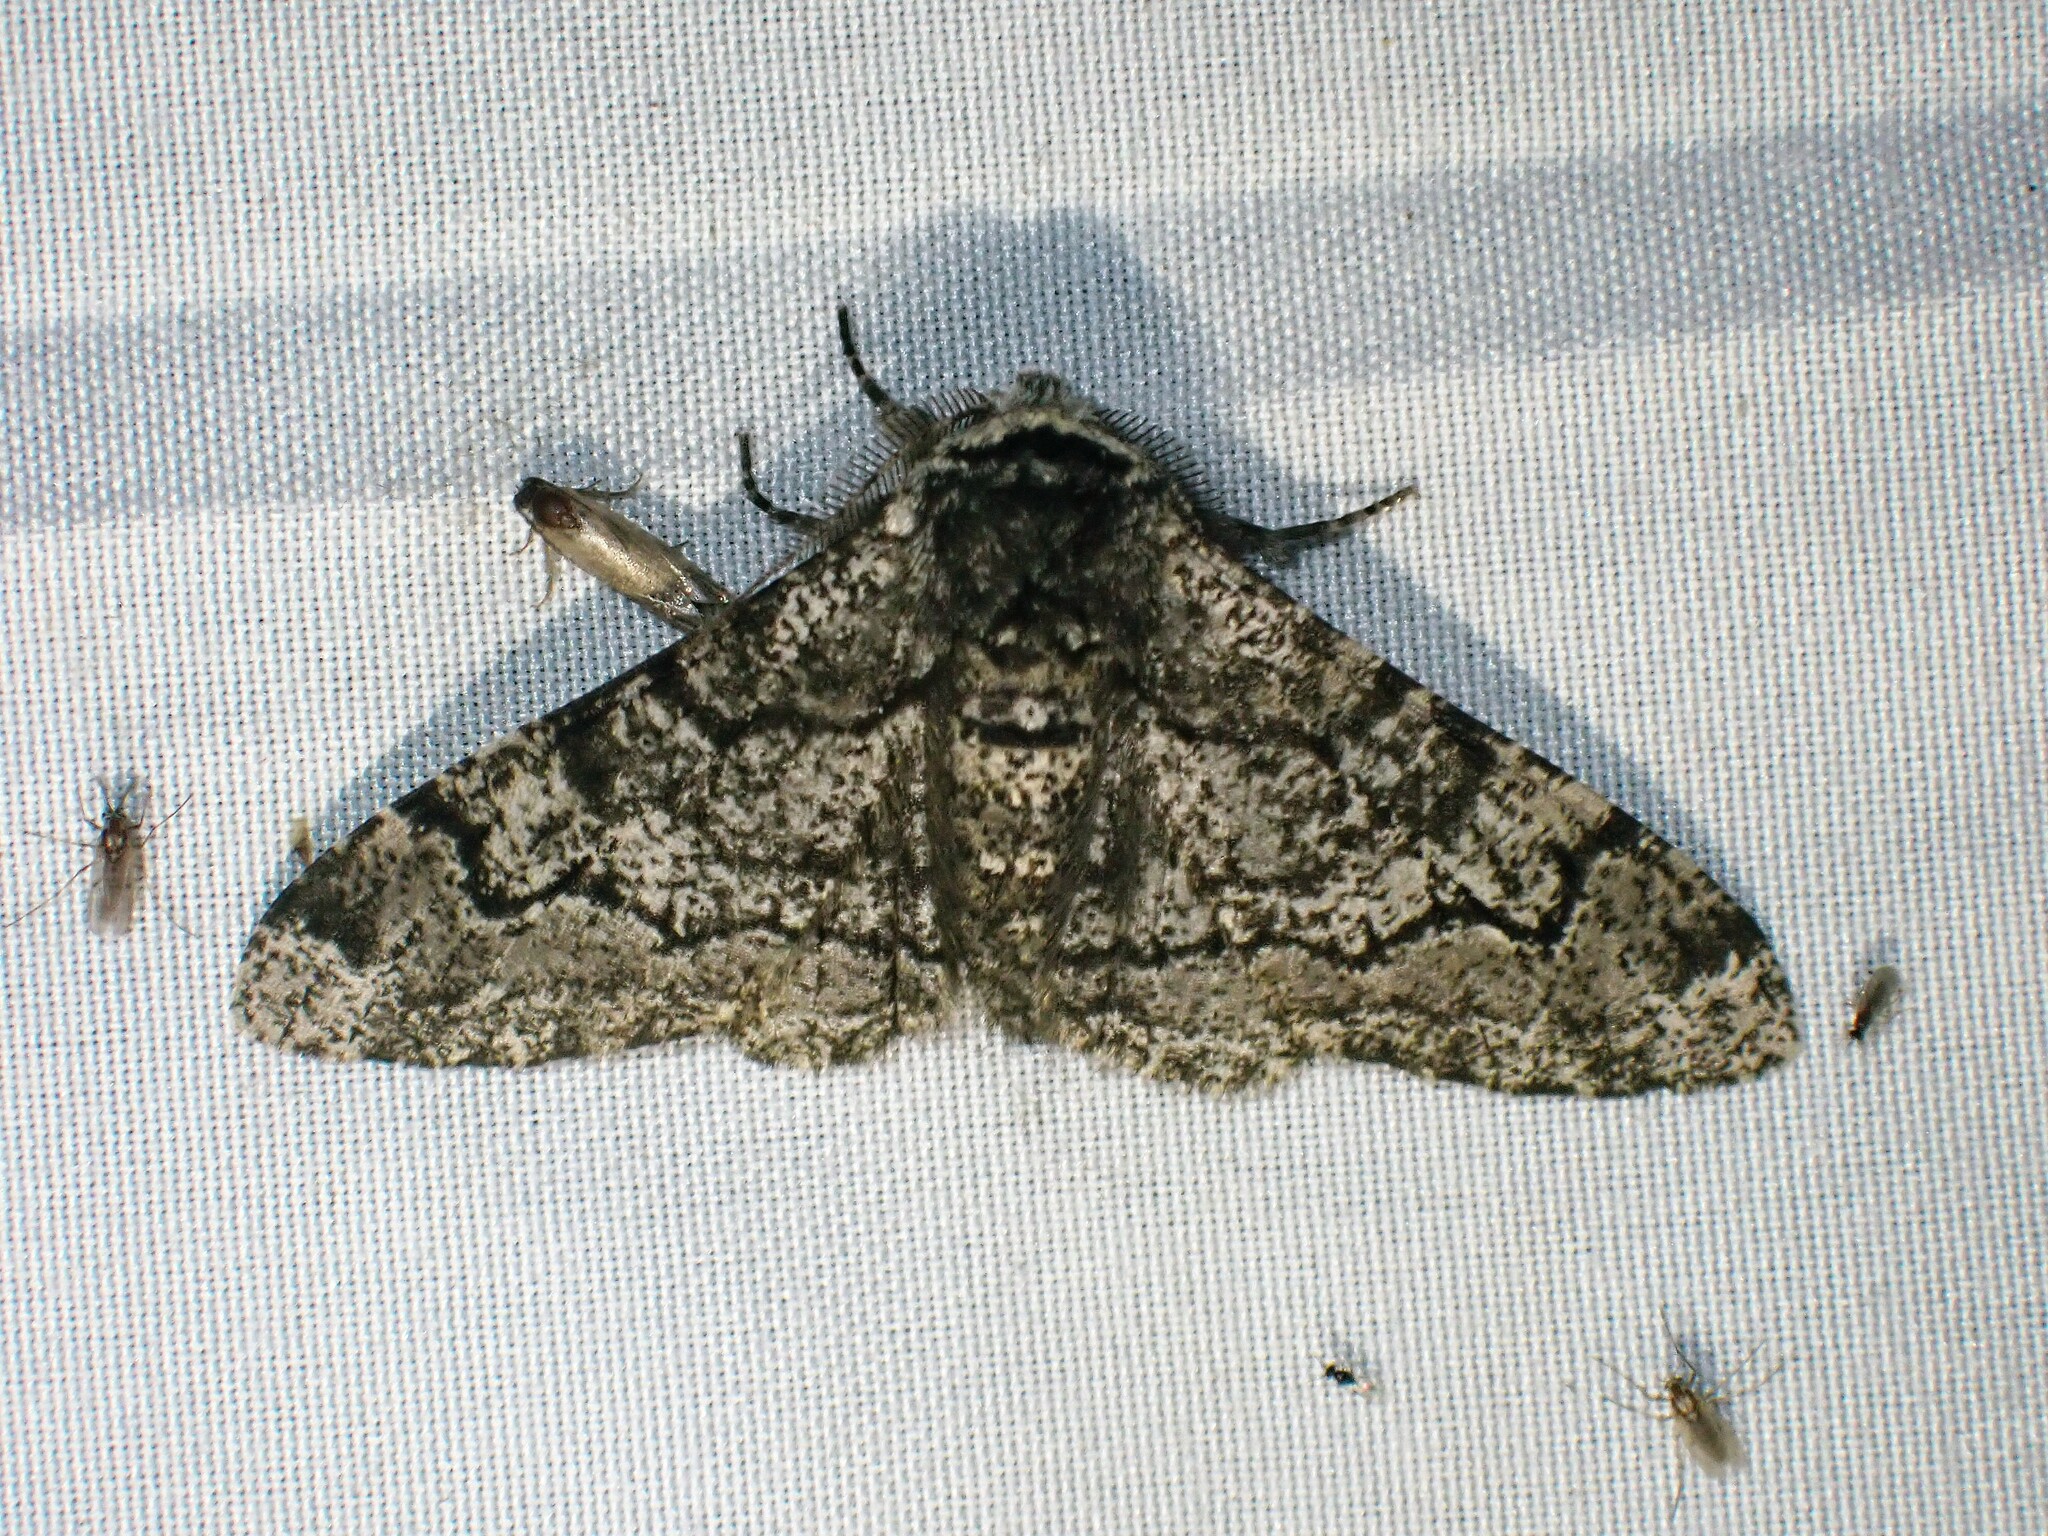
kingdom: Animalia
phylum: Arthropoda
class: Insecta
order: Lepidoptera
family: Geometridae
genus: Biston
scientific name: Biston betularia
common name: Peppered moth
